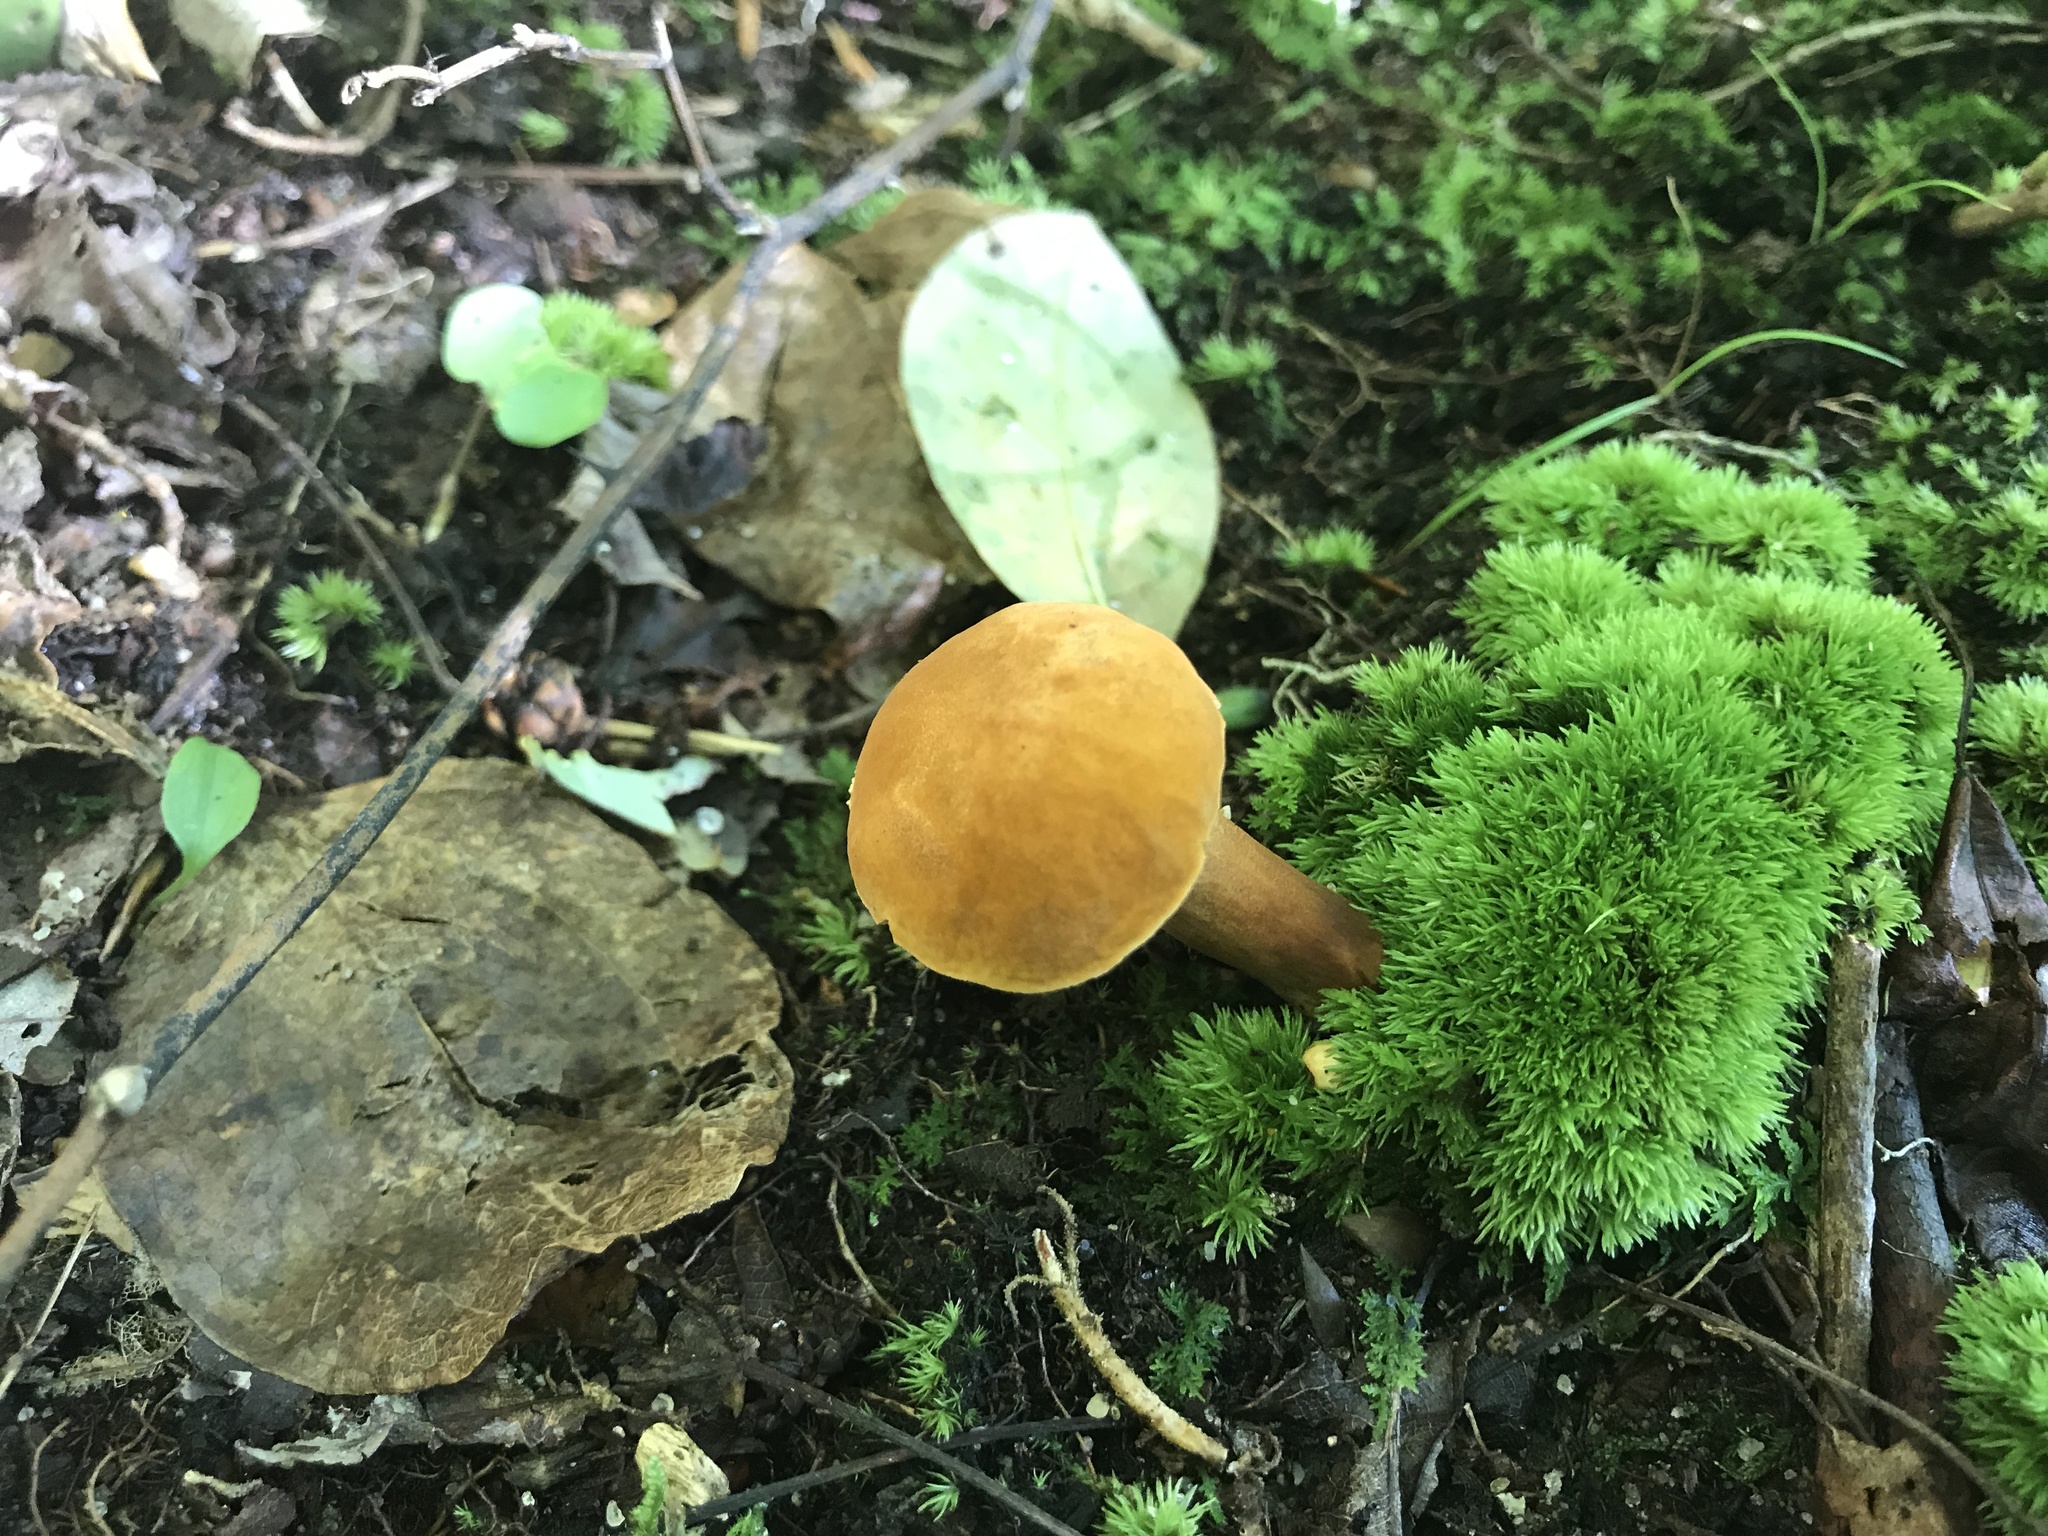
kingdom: Fungi
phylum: Basidiomycota
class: Agaricomycetes
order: Boletales
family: Gyroporaceae
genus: Gyroporus
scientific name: Gyroporus castaneus
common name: Chestnut bolete
